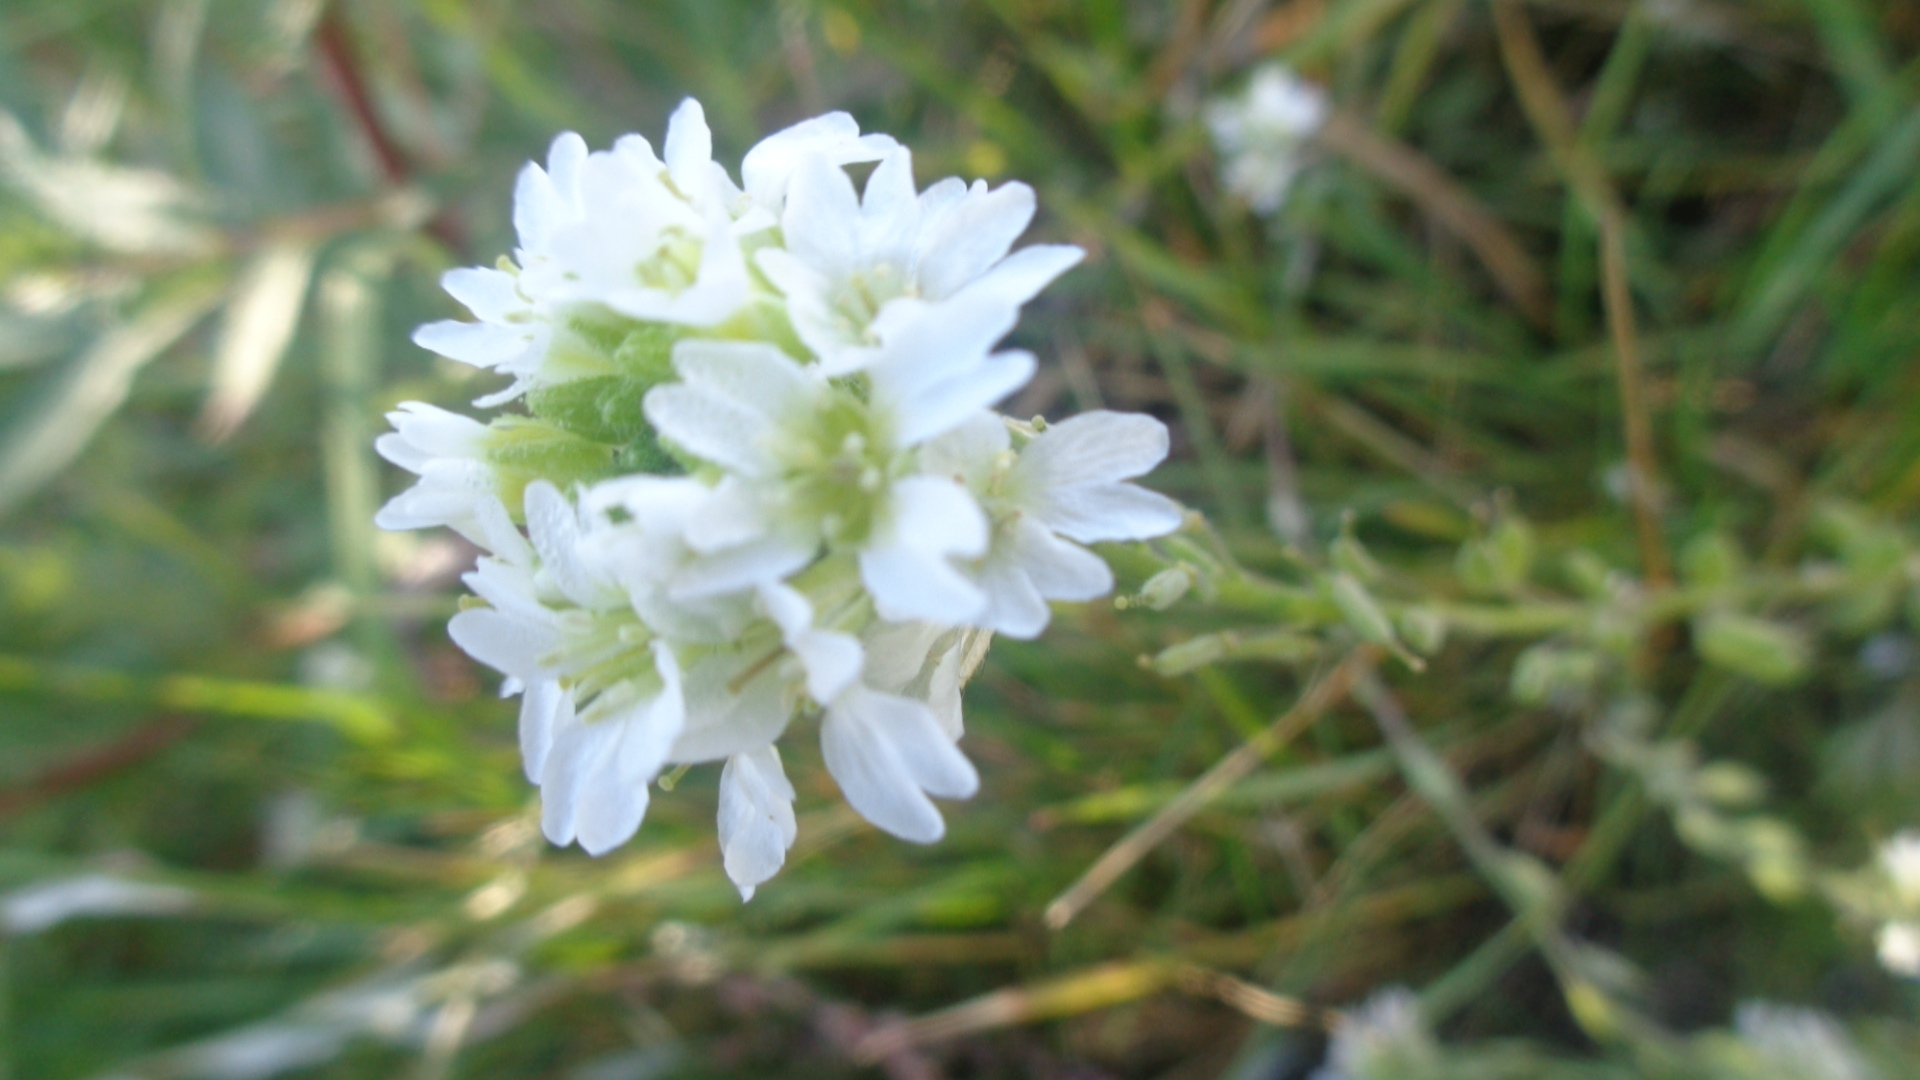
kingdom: Plantae
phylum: Tracheophyta
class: Magnoliopsida
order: Brassicales
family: Brassicaceae
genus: Berteroa
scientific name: Berteroa incana
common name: Hoary alison
